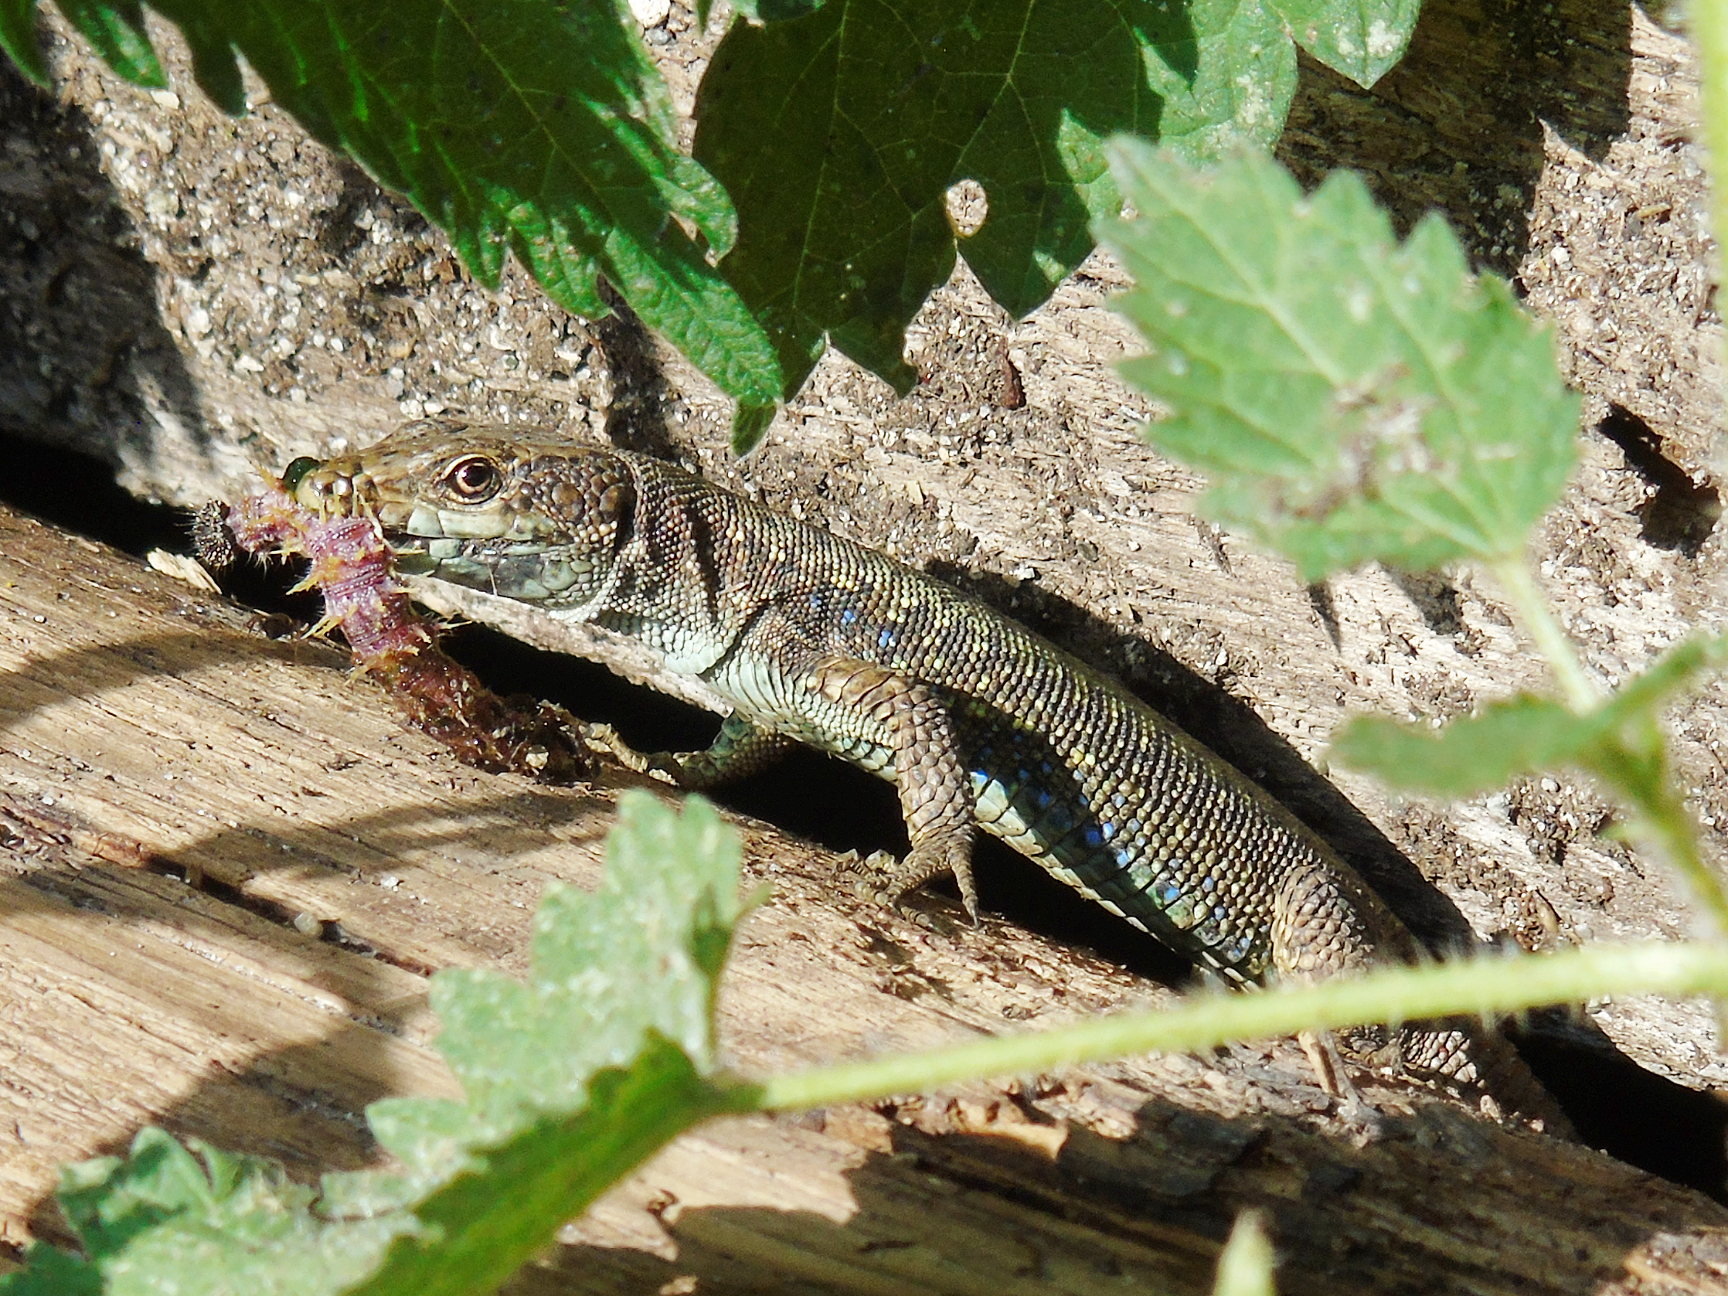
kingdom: Animalia
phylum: Chordata
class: Squamata
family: Lacertidae
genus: Darevskia
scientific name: Darevskia rudis
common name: Spiny-tailed lizard
